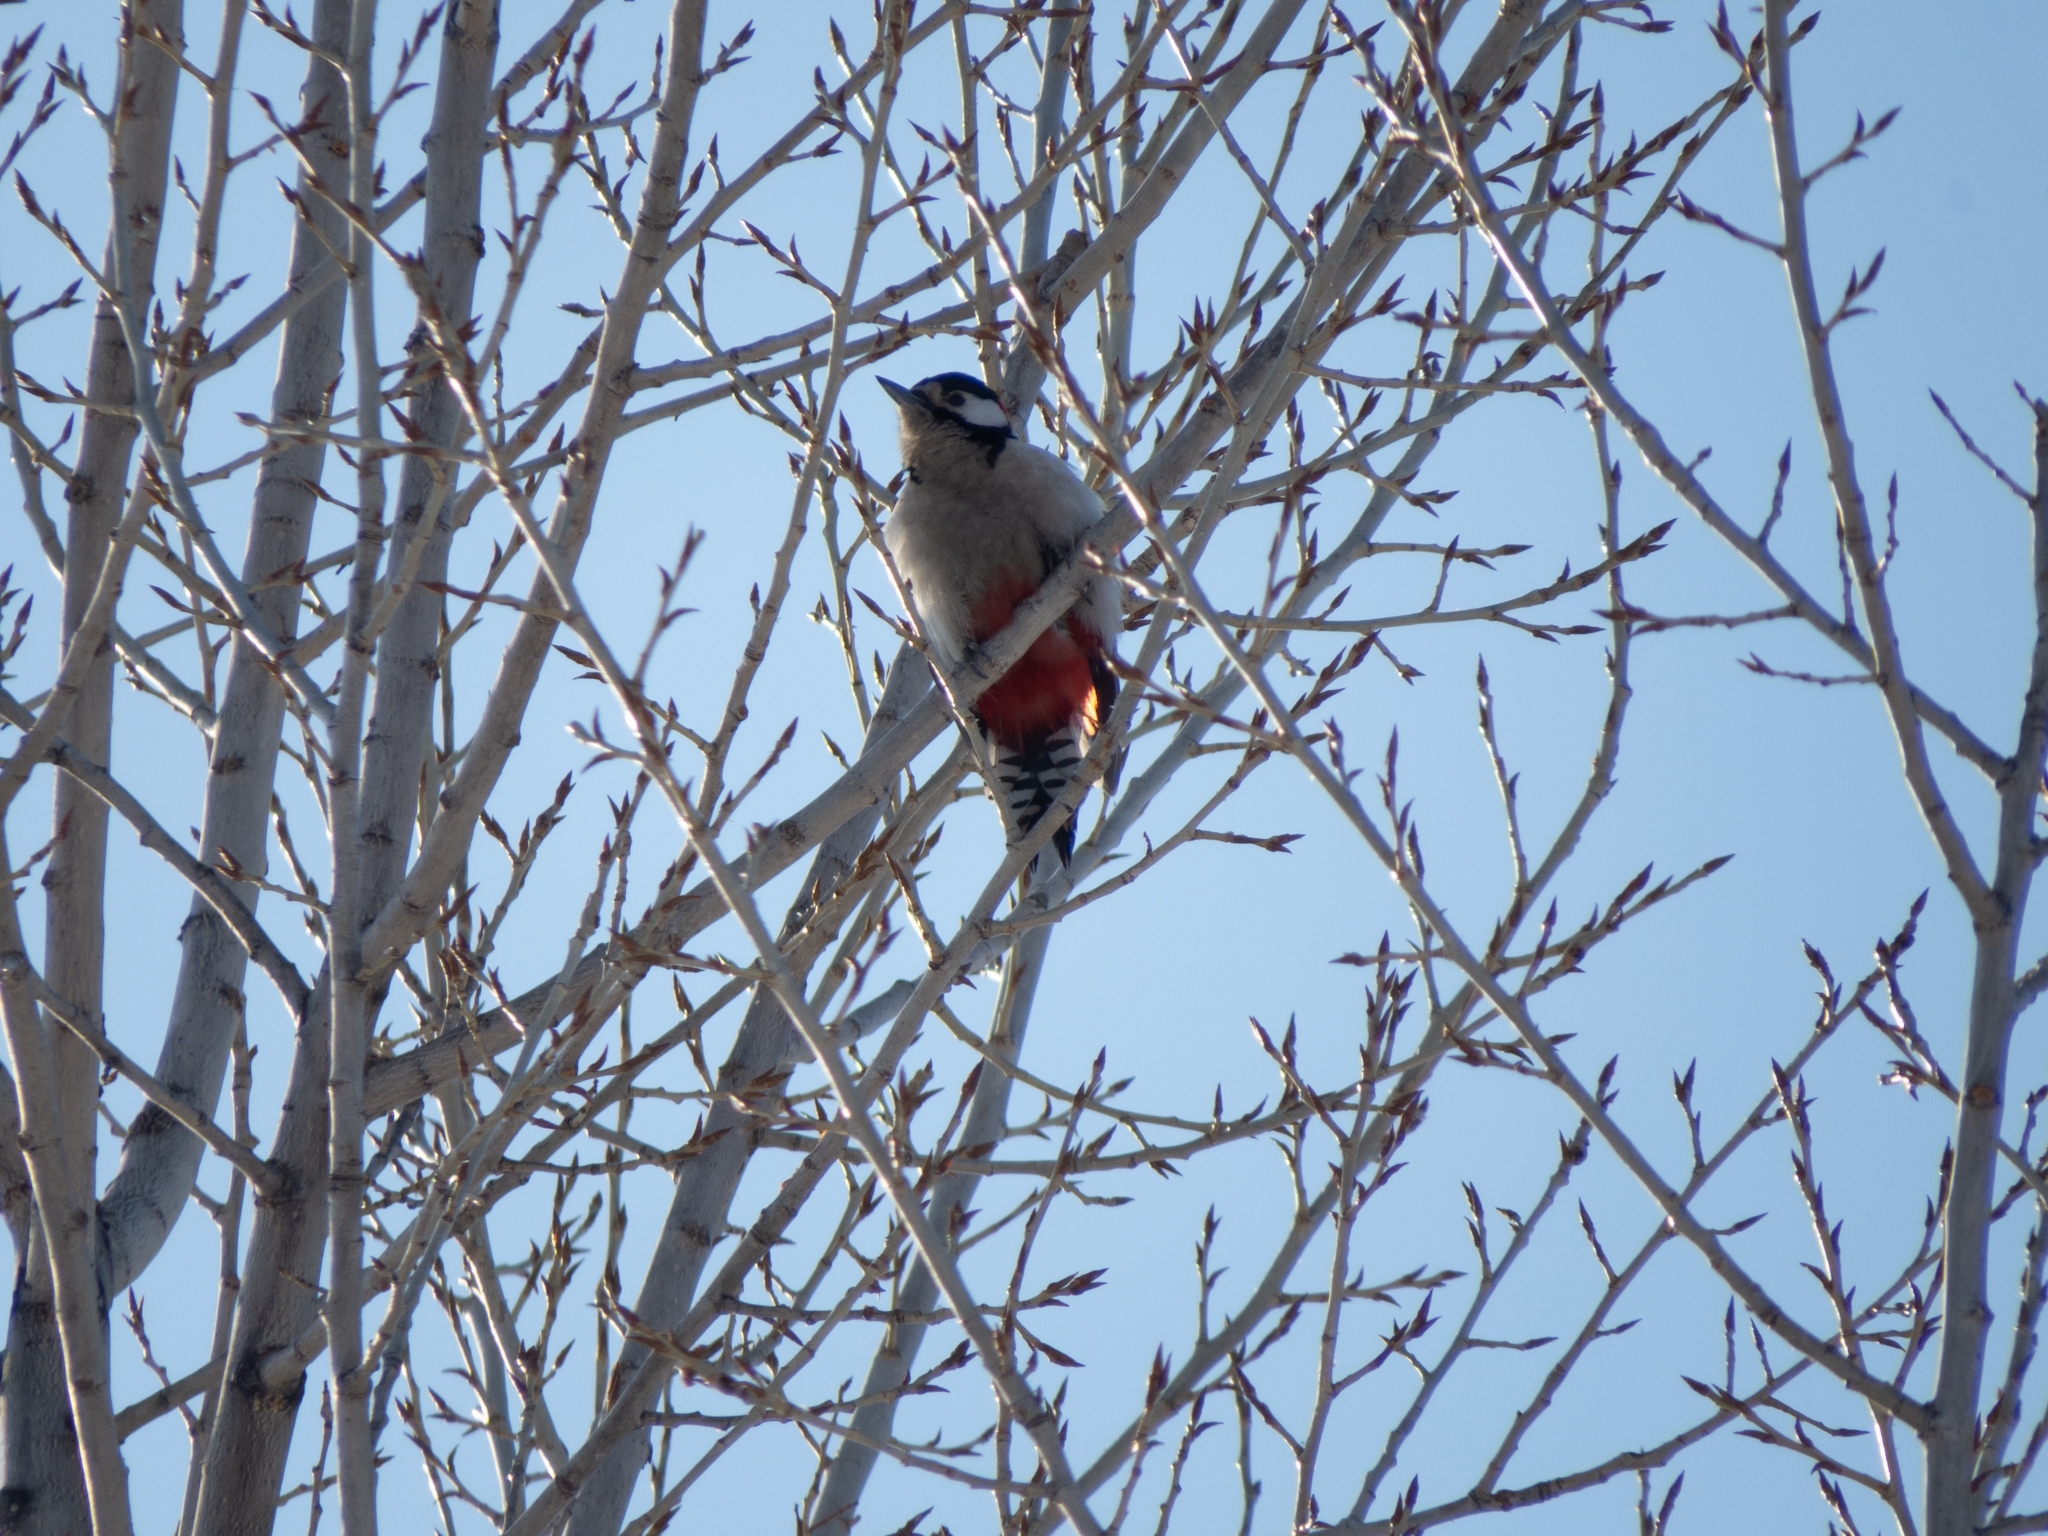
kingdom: Animalia
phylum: Chordata
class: Aves
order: Piciformes
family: Picidae
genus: Dendrocopos
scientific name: Dendrocopos major
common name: Great spotted woodpecker
